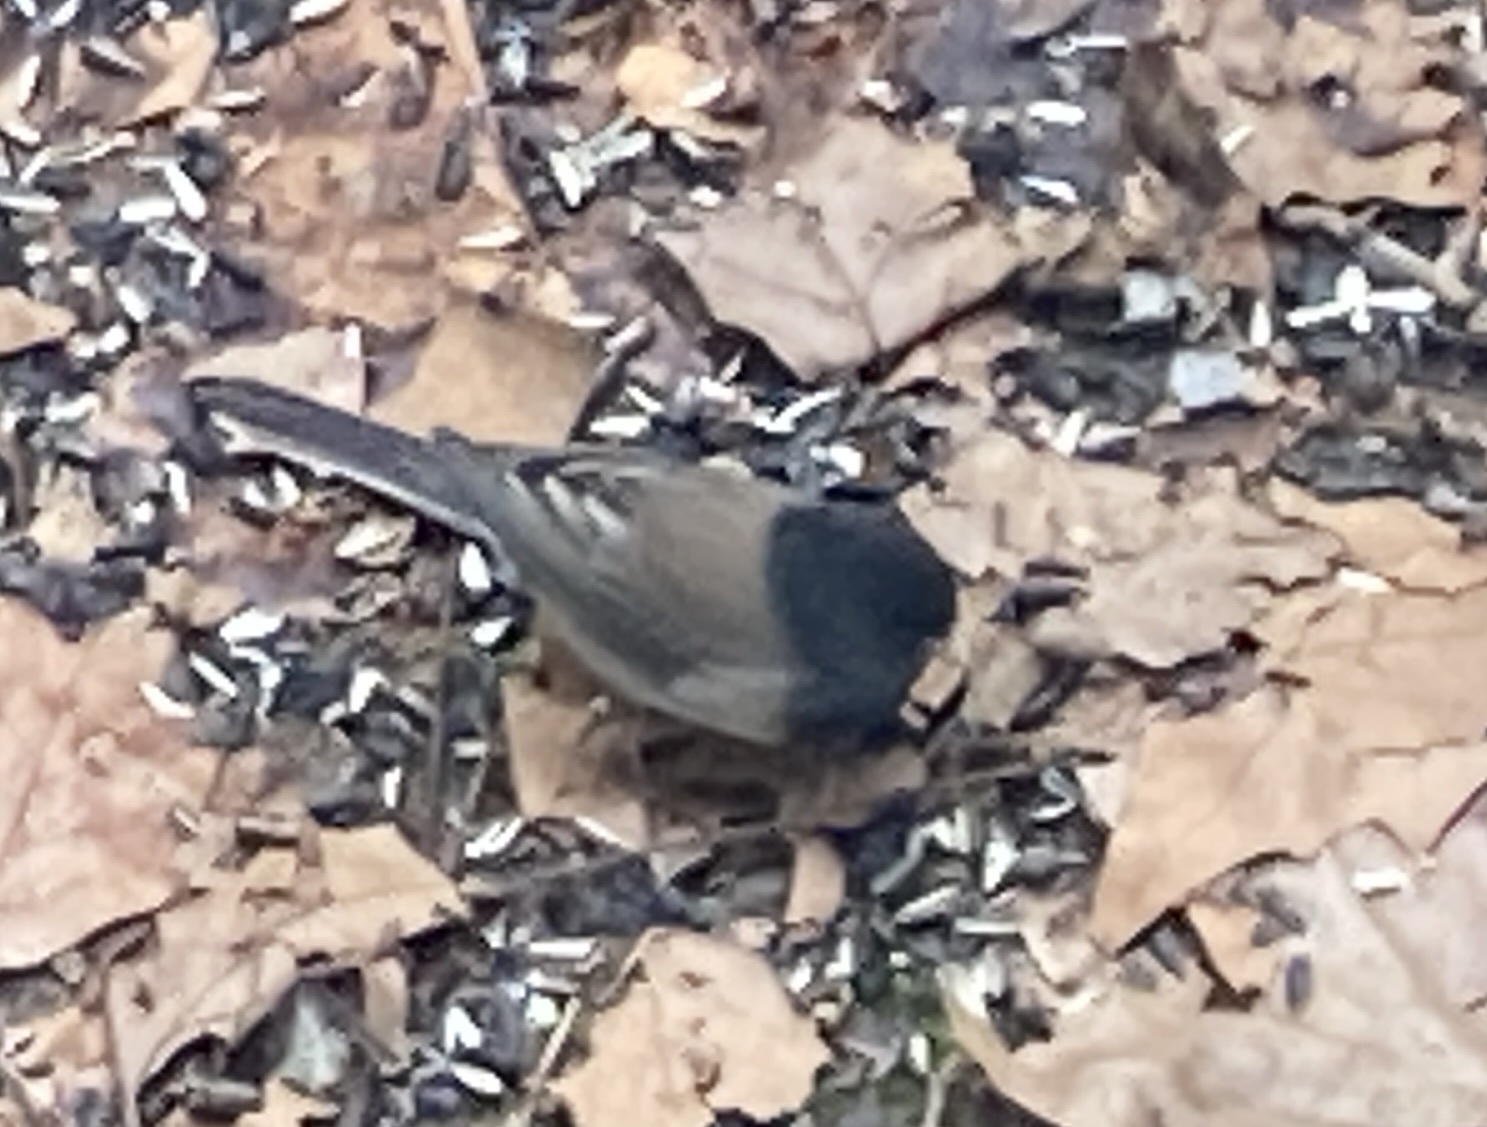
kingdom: Animalia
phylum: Chordata
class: Aves
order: Passeriformes
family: Passerellidae
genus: Junco
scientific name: Junco hyemalis
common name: Dark-eyed junco
